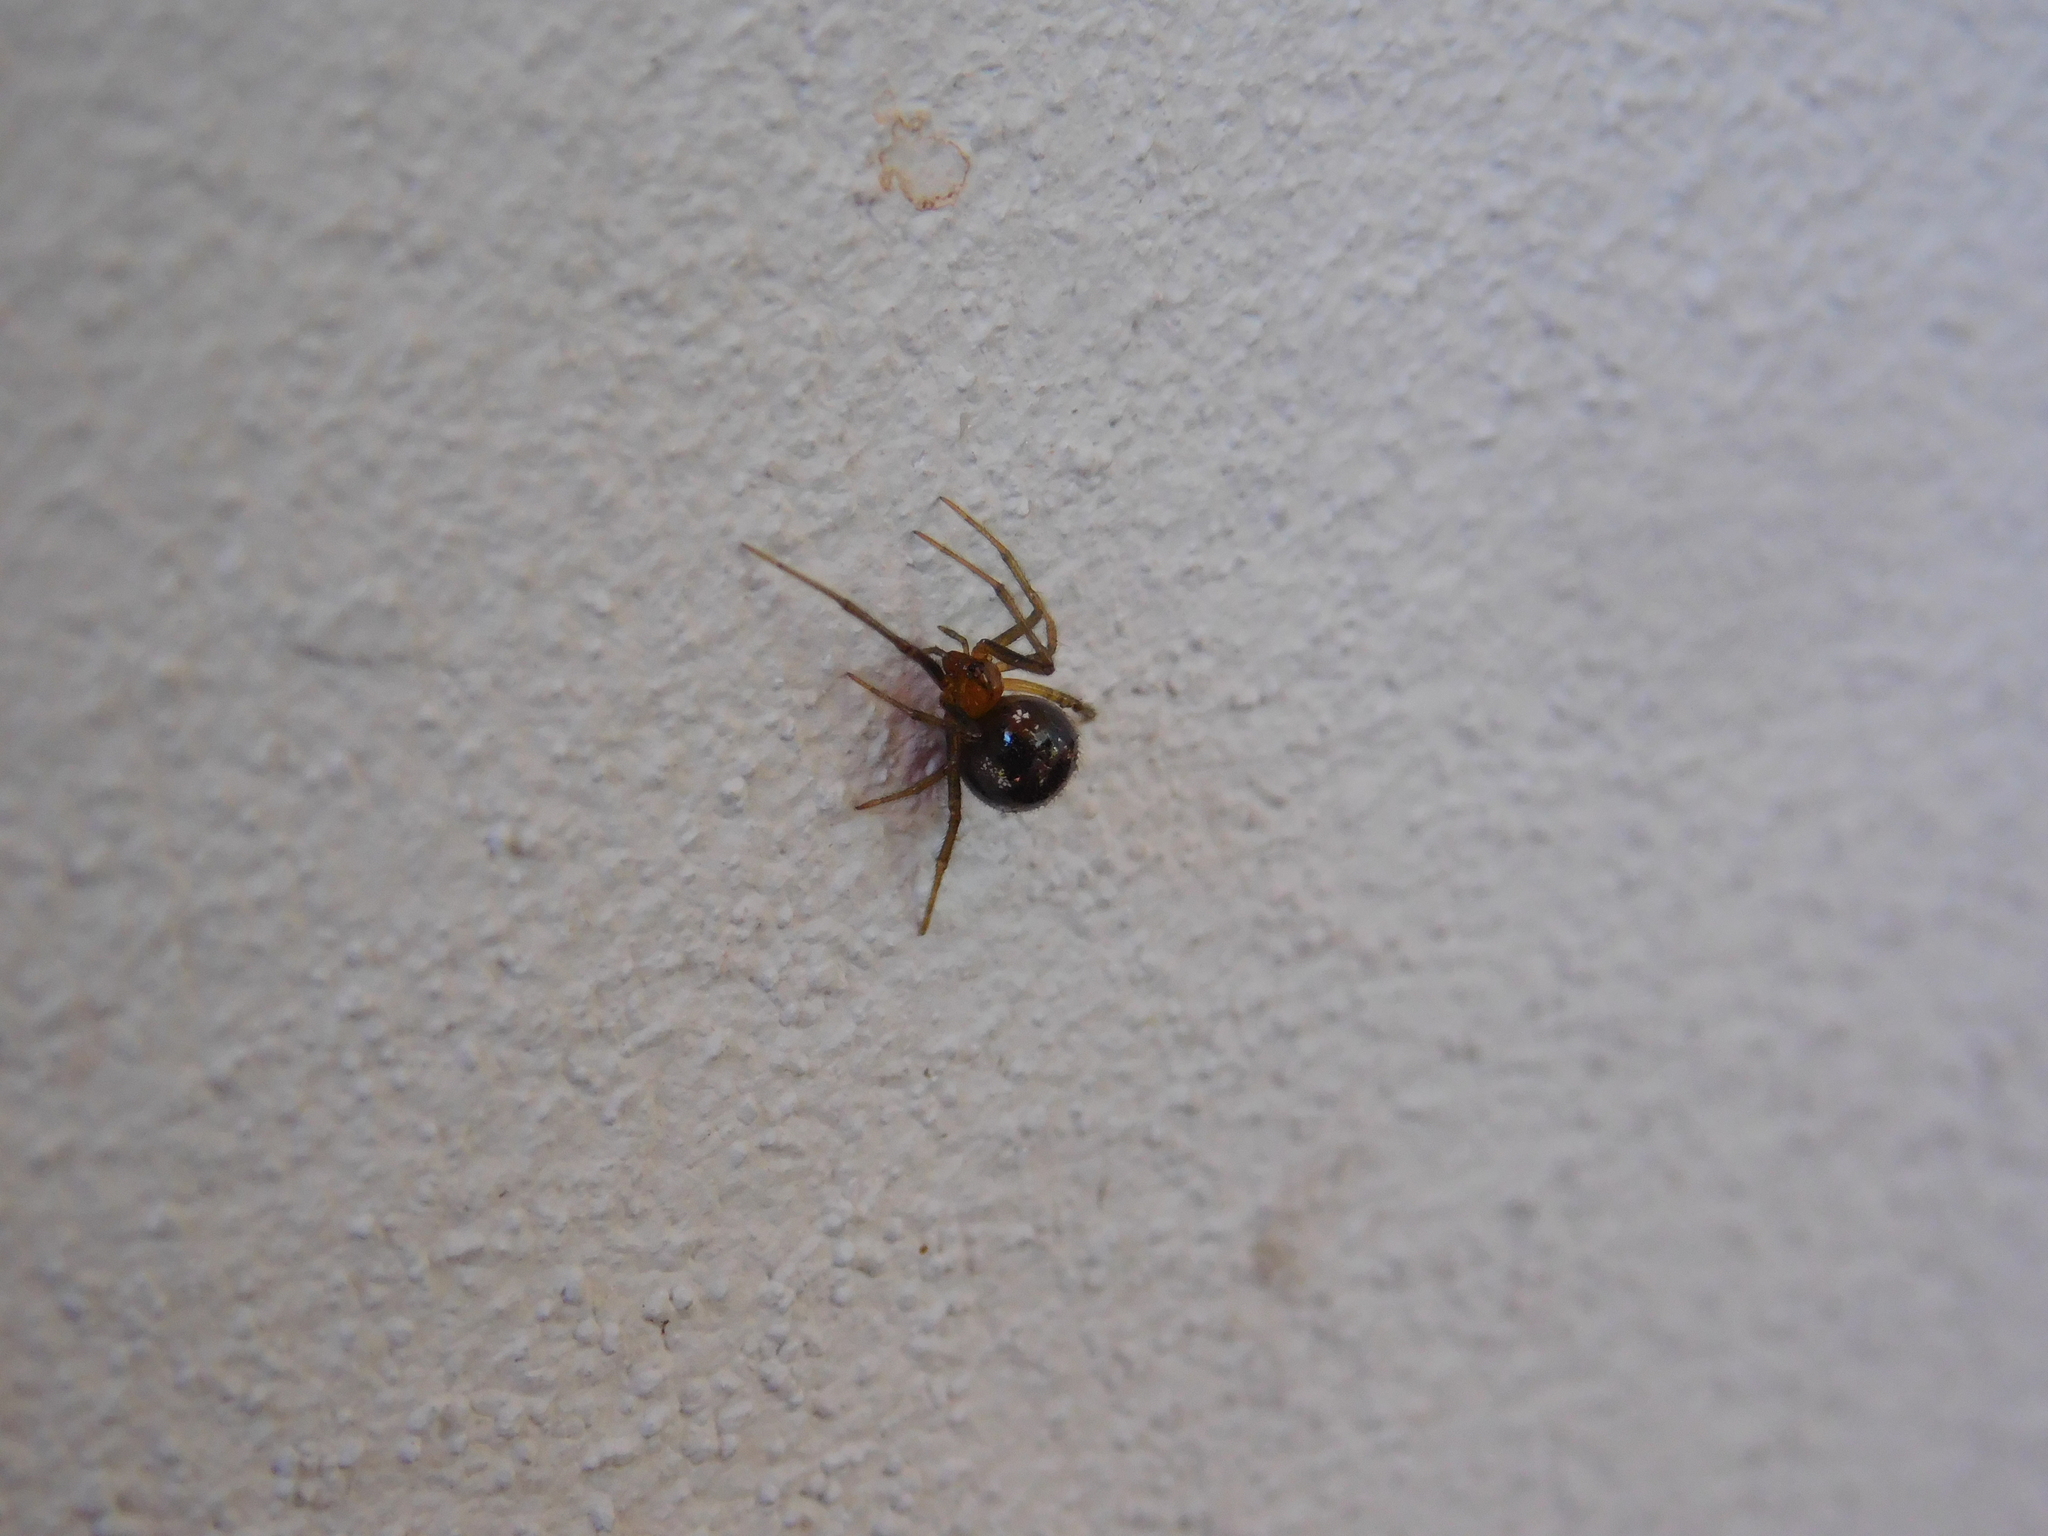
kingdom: Animalia
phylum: Arthropoda
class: Arachnida
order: Araneae
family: Theridiidae
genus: Nesticodes
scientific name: Nesticodes rufipes
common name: Cobweb spiders
